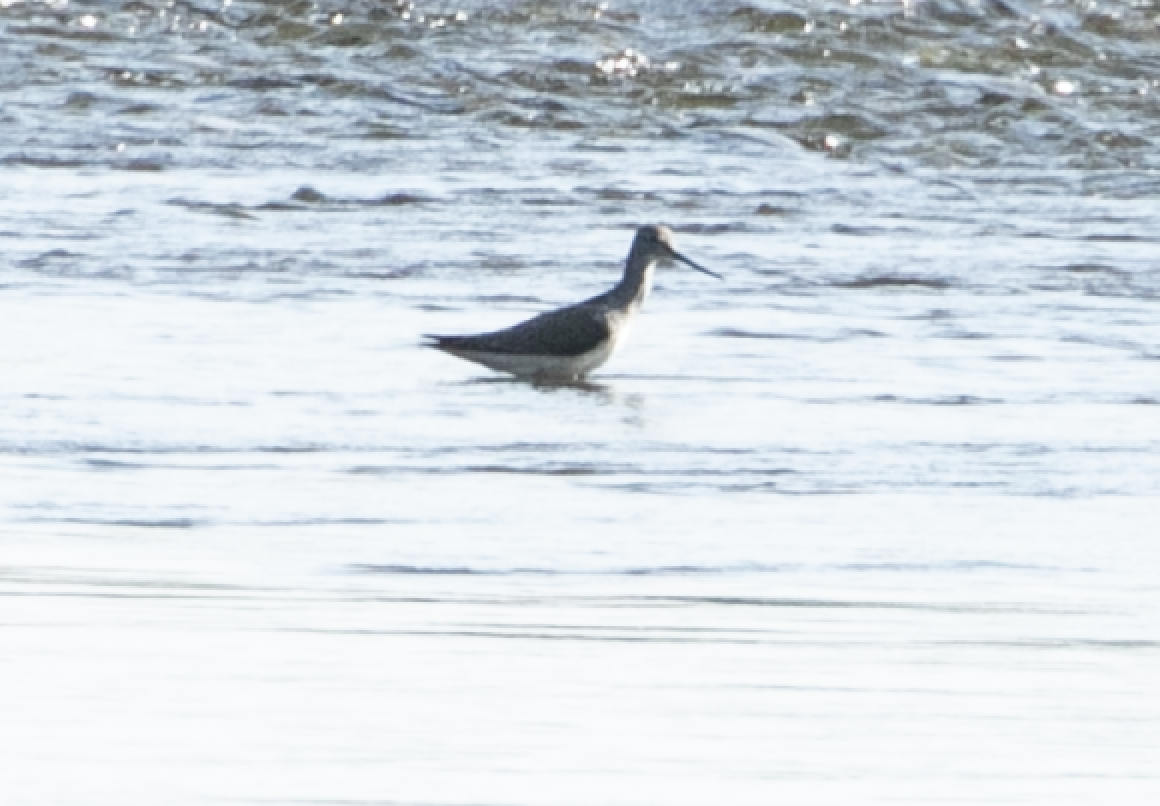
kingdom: Animalia
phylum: Chordata
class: Aves
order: Charadriiformes
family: Scolopacidae
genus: Tringa
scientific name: Tringa nebularia
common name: Common greenshank
